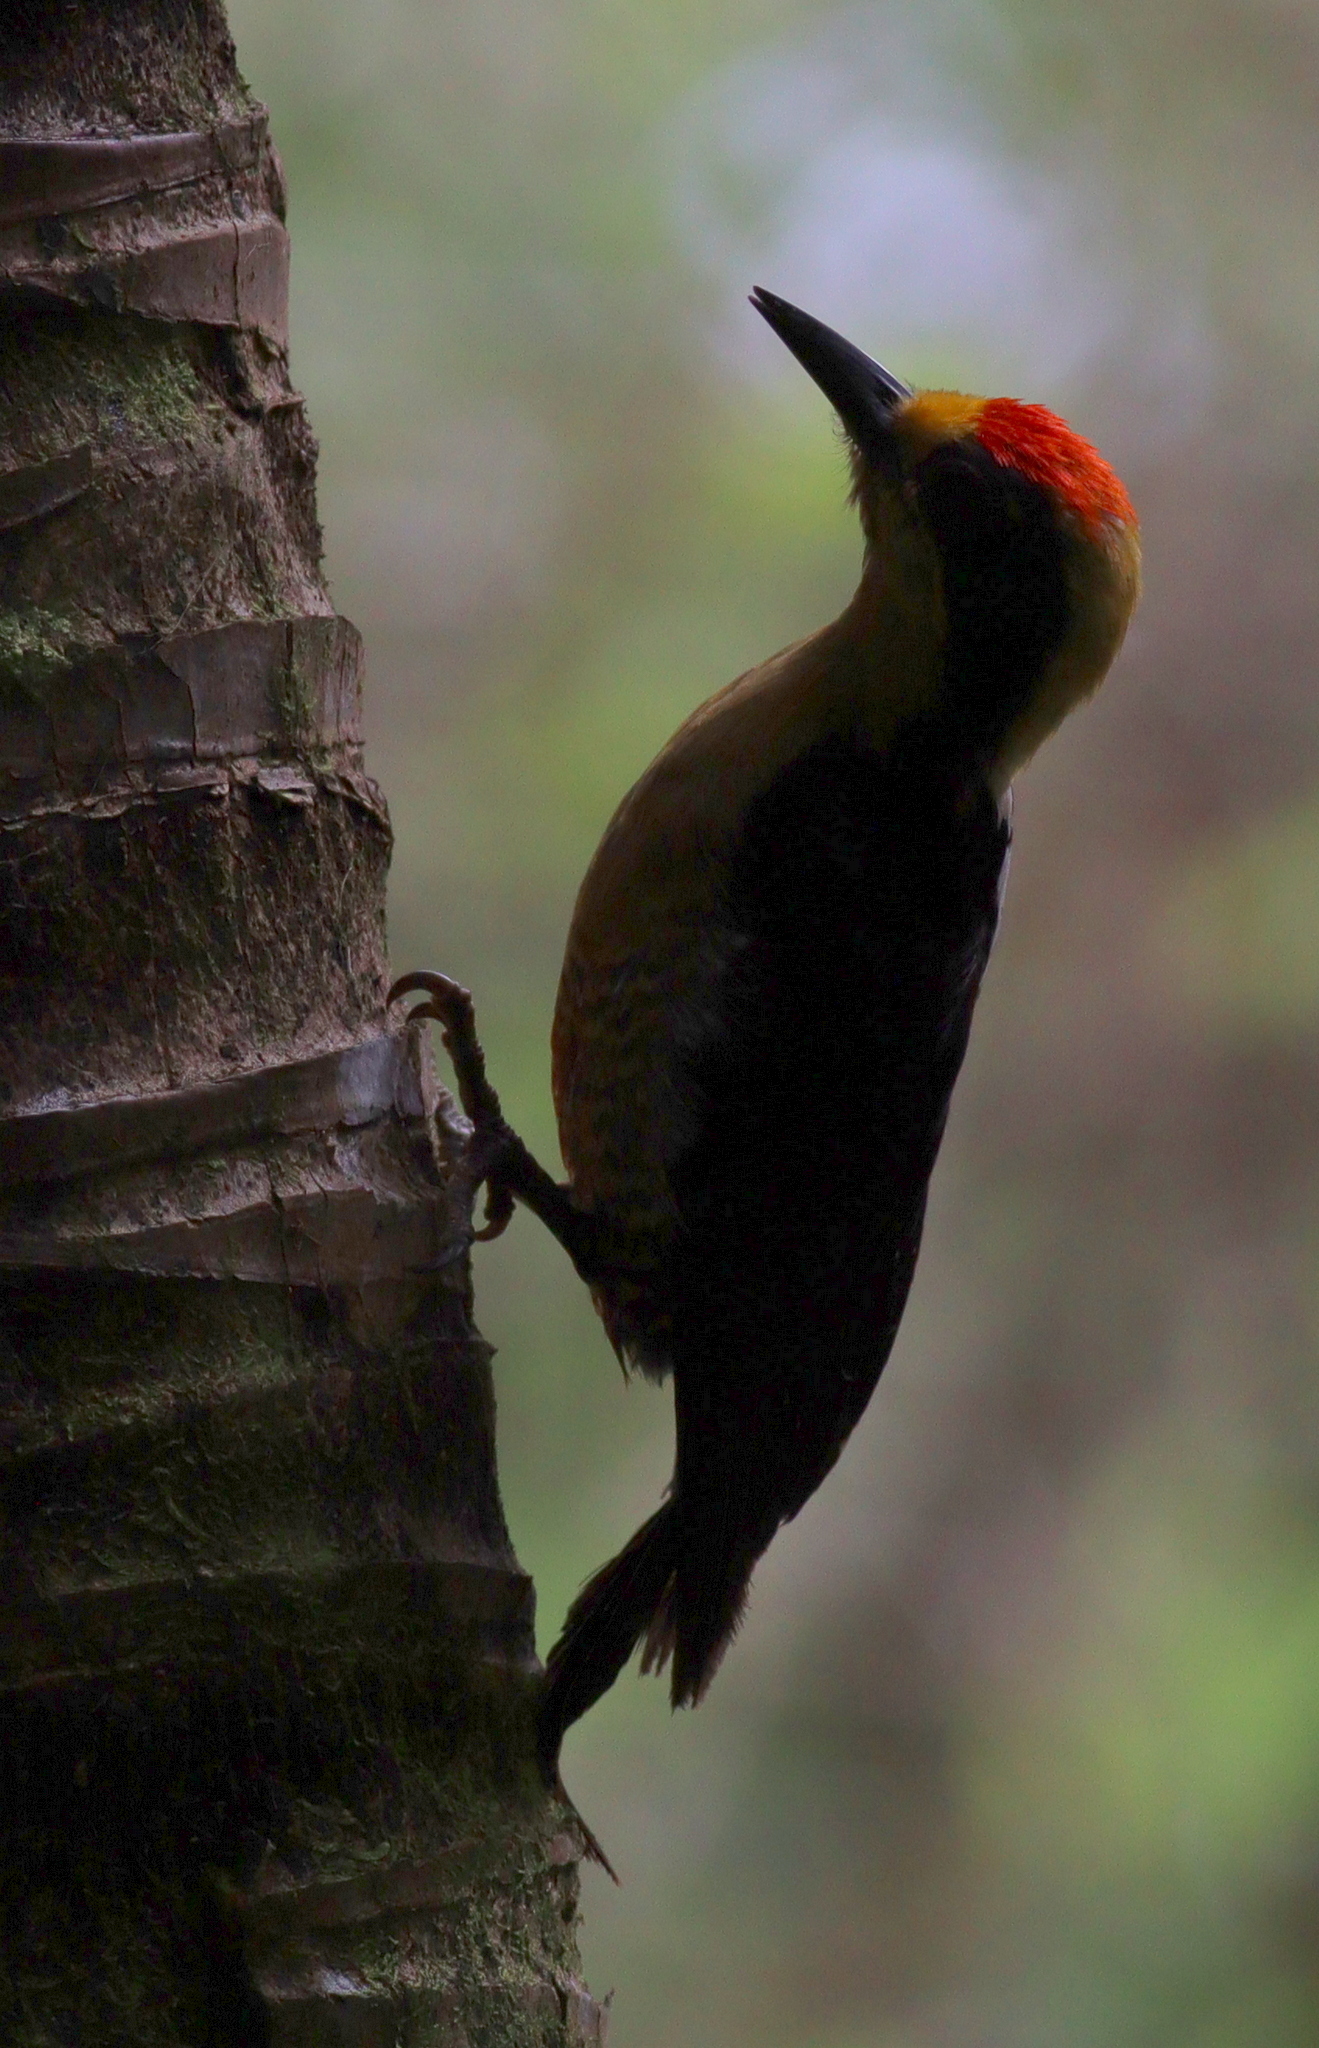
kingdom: Animalia
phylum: Chordata
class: Aves
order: Piciformes
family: Picidae
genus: Melanerpes
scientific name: Melanerpes chrysauchen
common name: Golden-naped woodpecker
